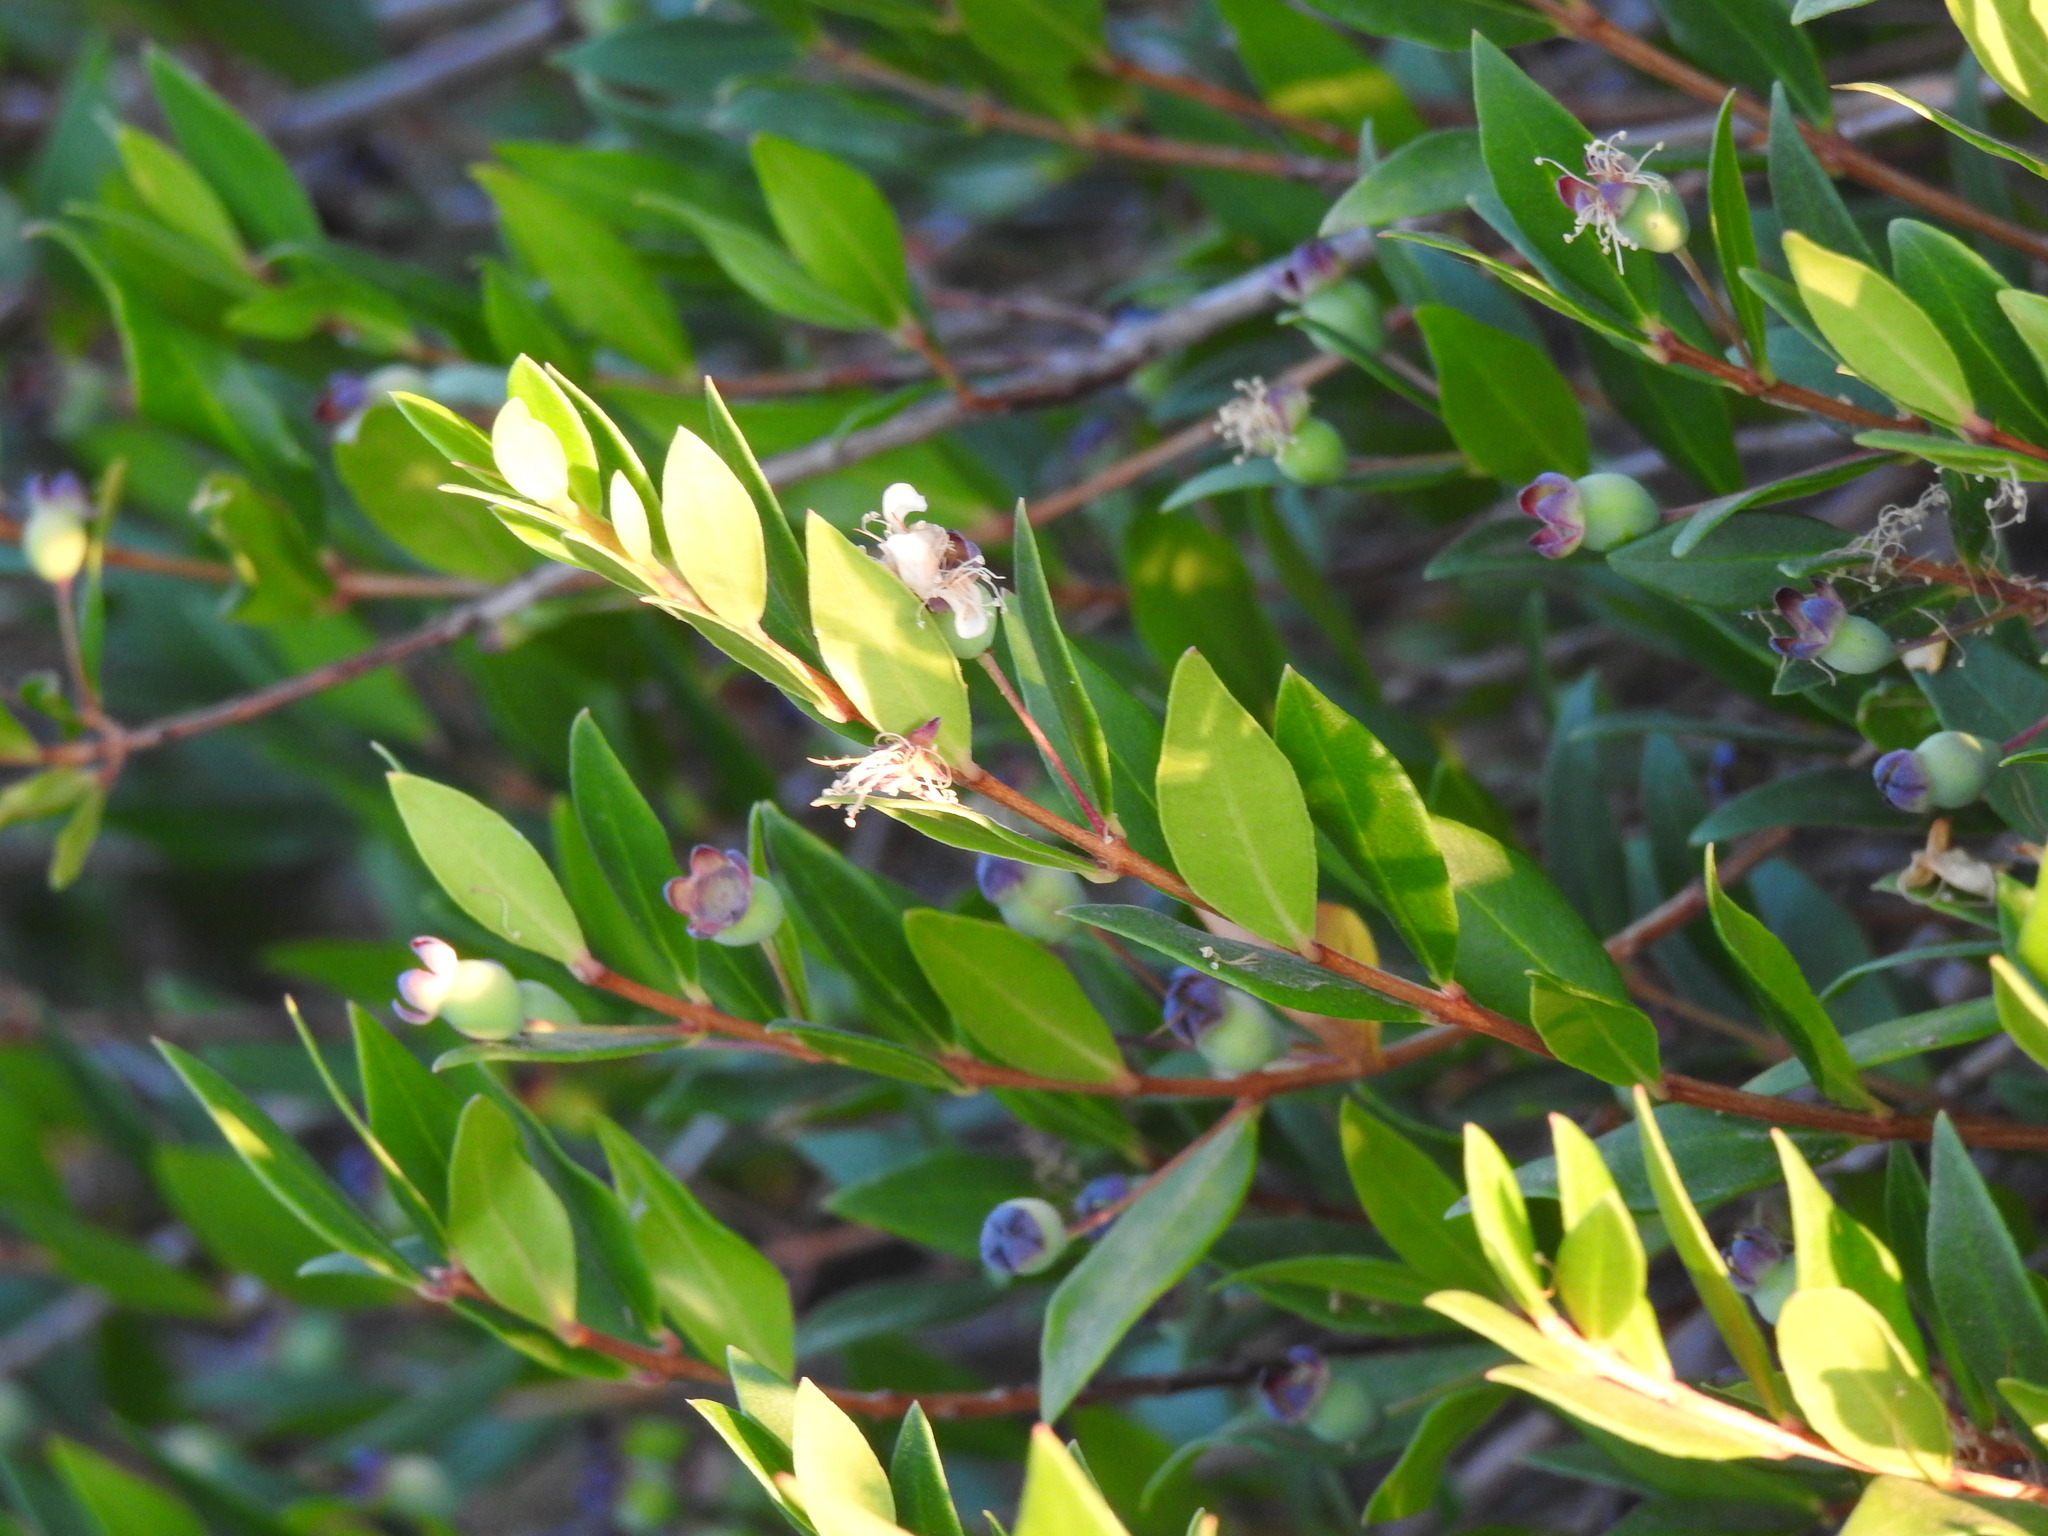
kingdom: Plantae
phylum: Tracheophyta
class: Magnoliopsida
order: Myrtales
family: Myrtaceae
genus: Myrtus
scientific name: Myrtus communis
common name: Myrtle
